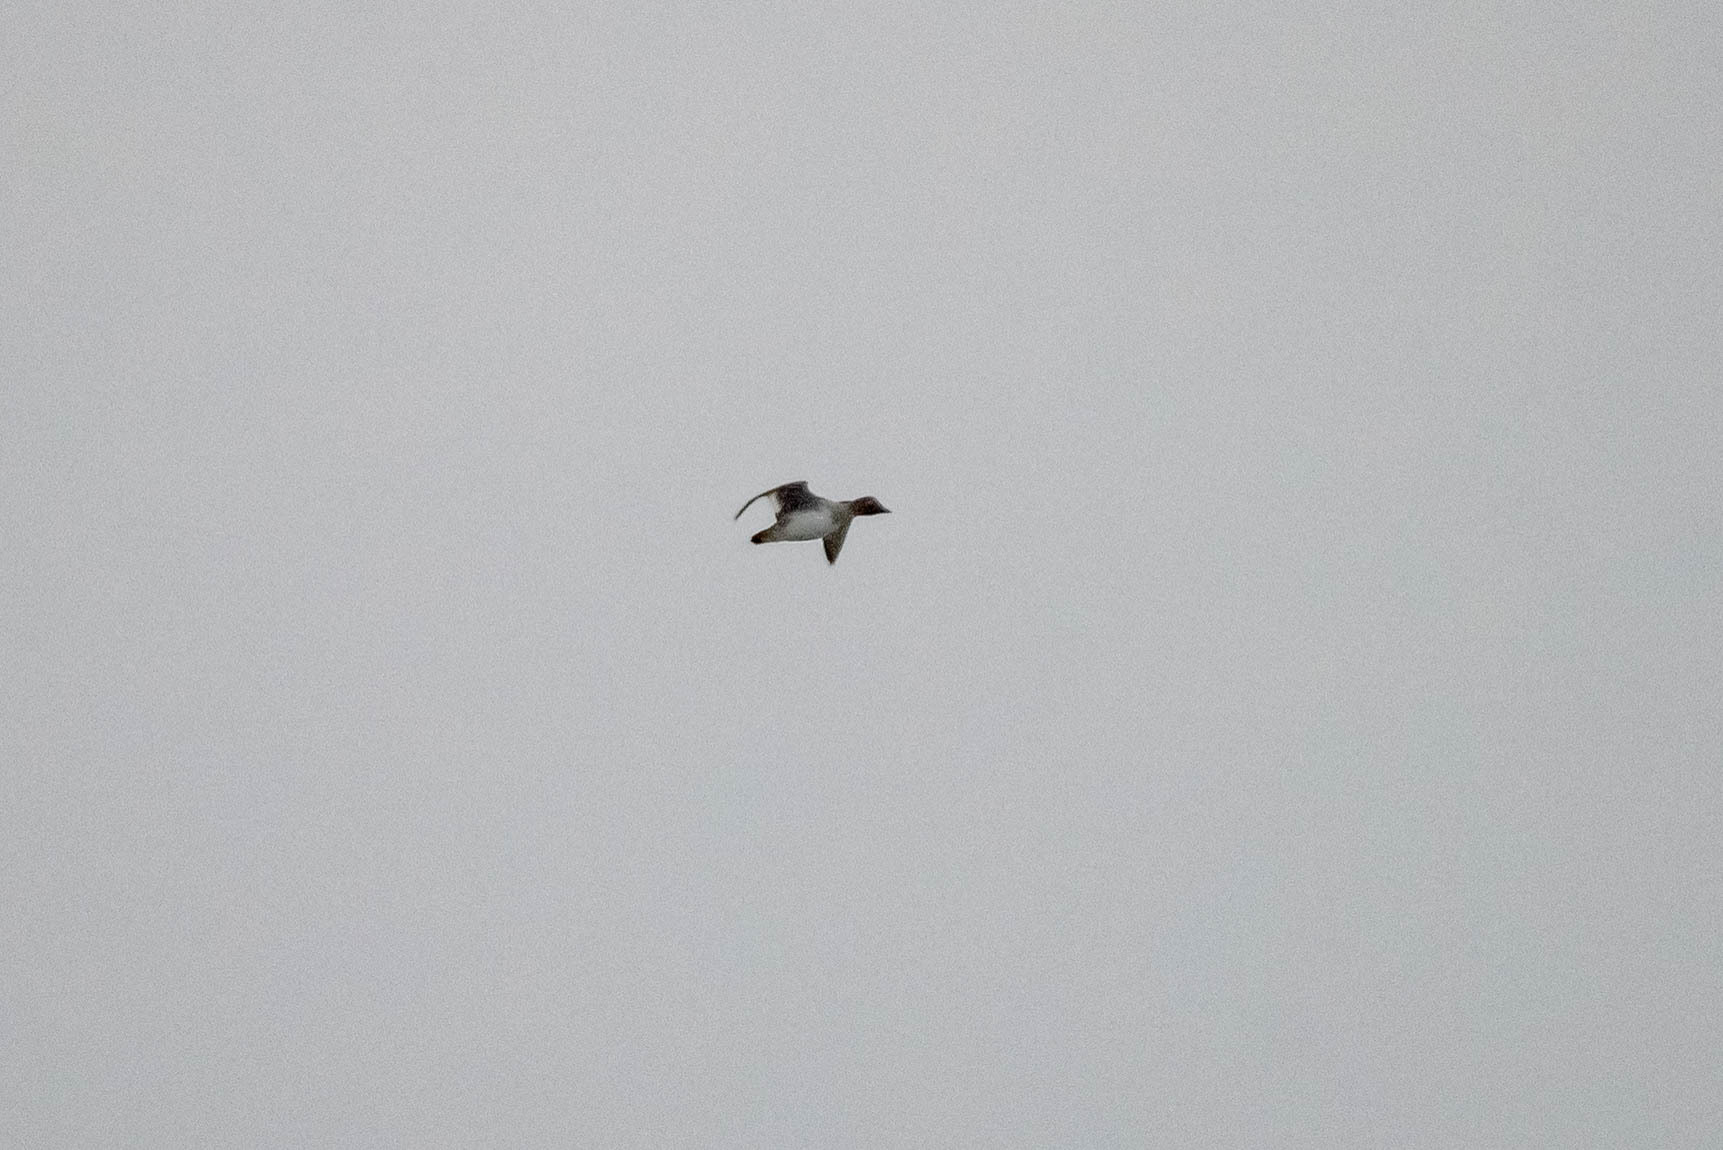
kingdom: Animalia
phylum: Chordata
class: Aves
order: Anseriformes
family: Anatidae
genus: Bucephala
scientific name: Bucephala clangula
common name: Common goldeneye
